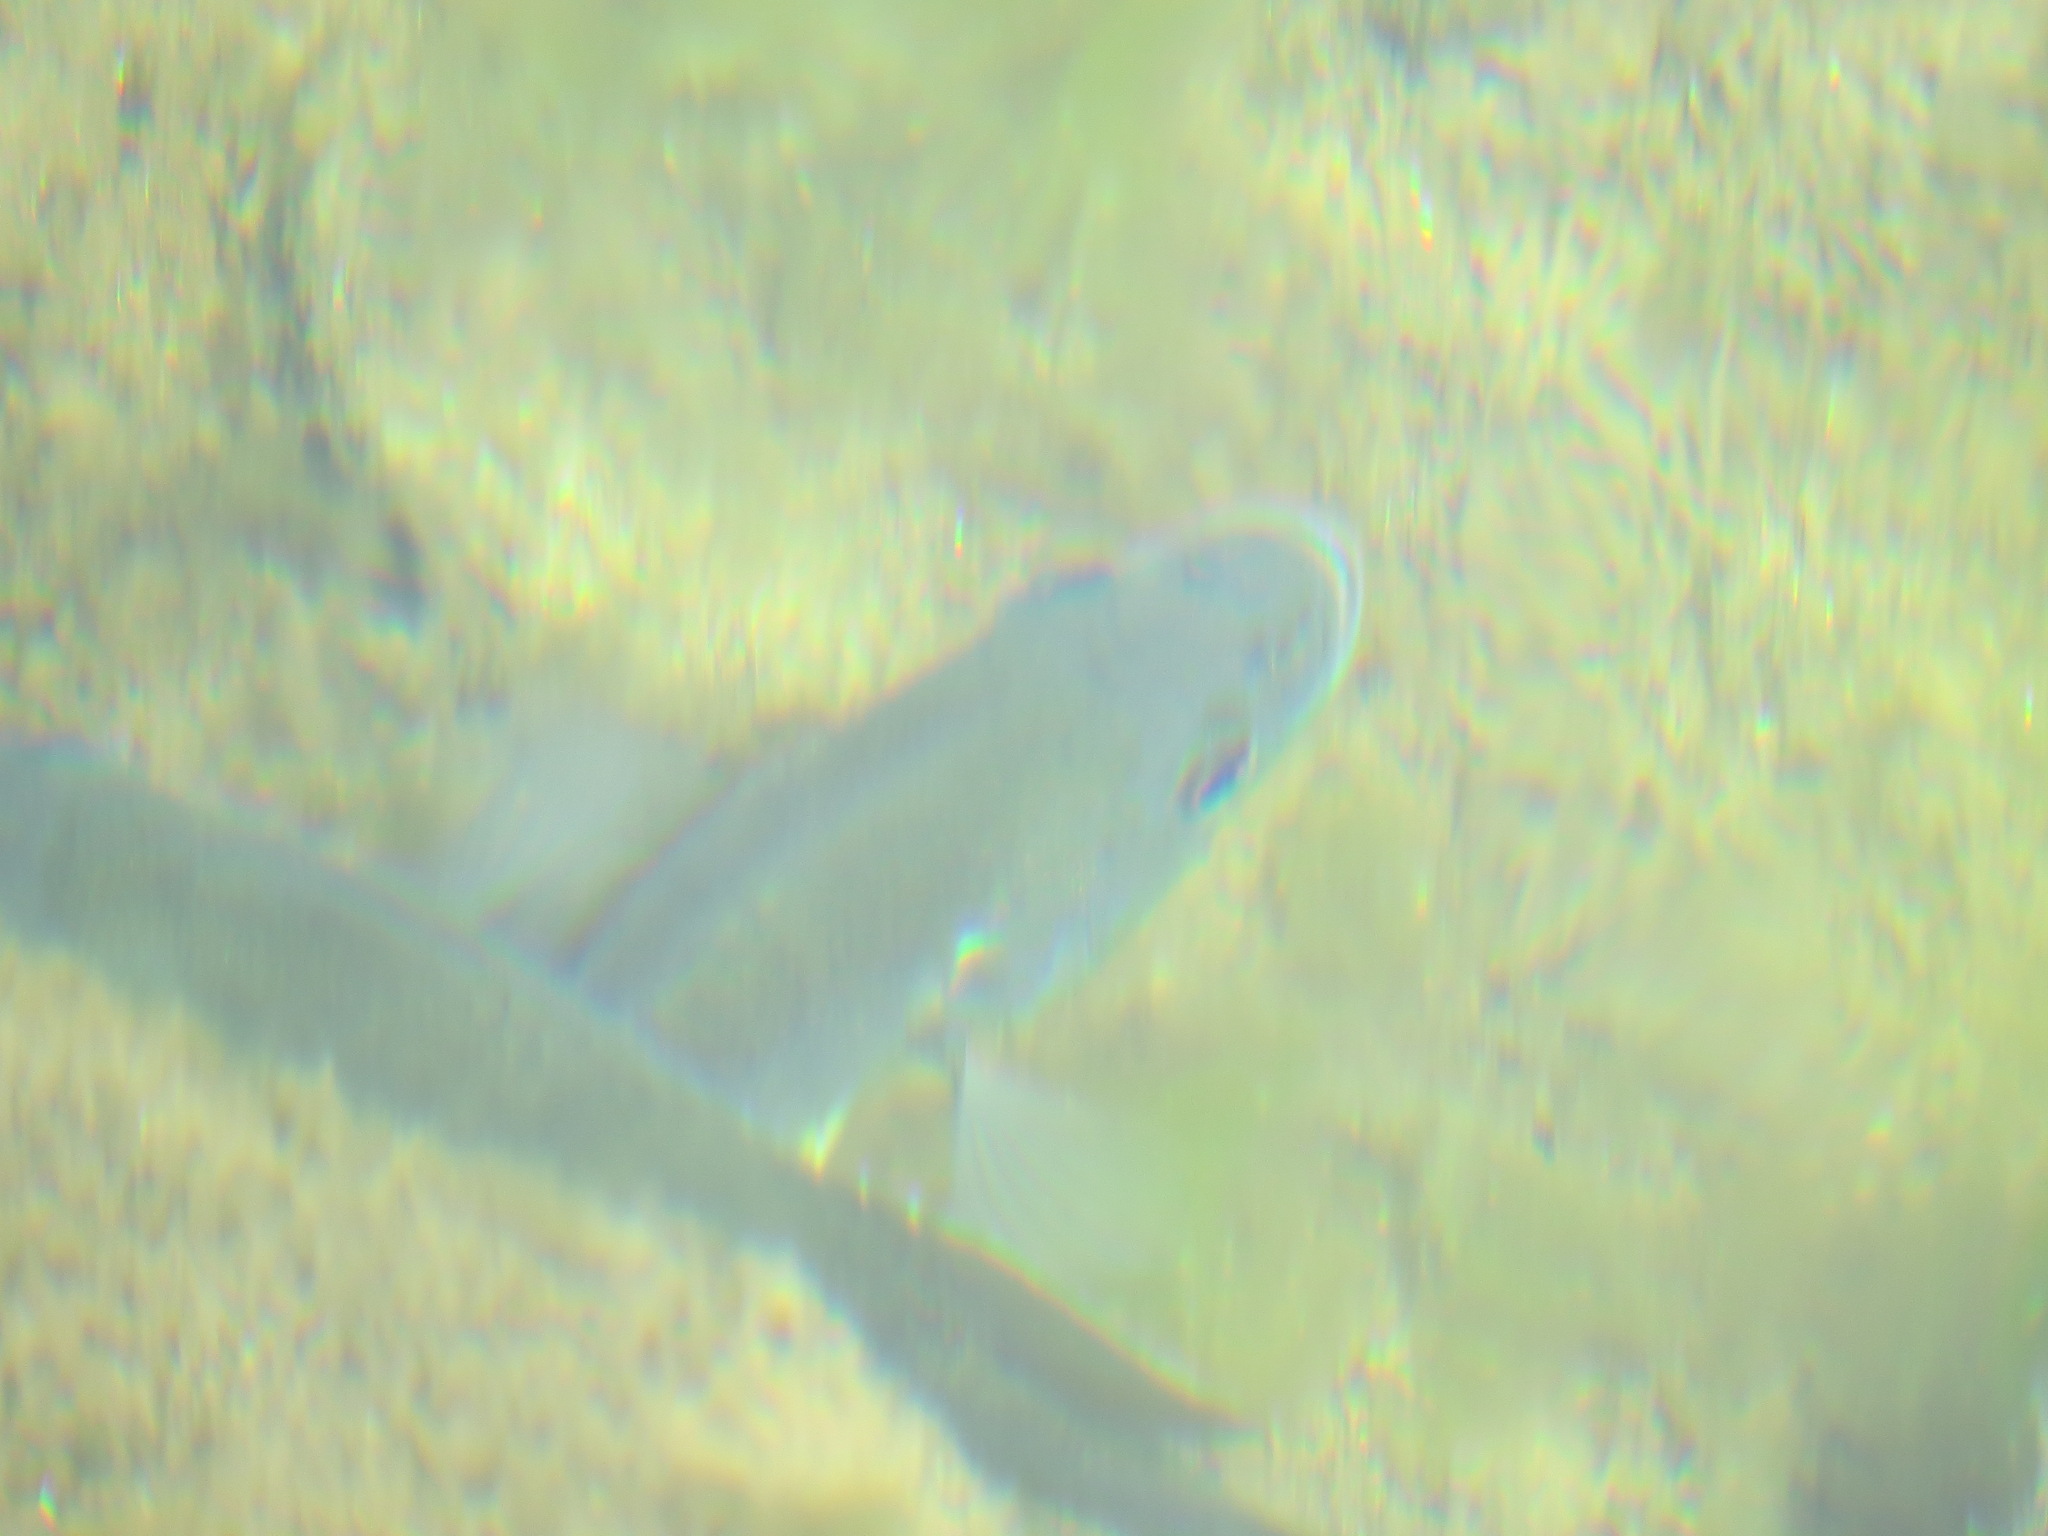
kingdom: Animalia
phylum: Chordata
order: Perciformes
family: Centrarchidae
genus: Lepomis
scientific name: Lepomis cyanellus
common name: Green sunfish
